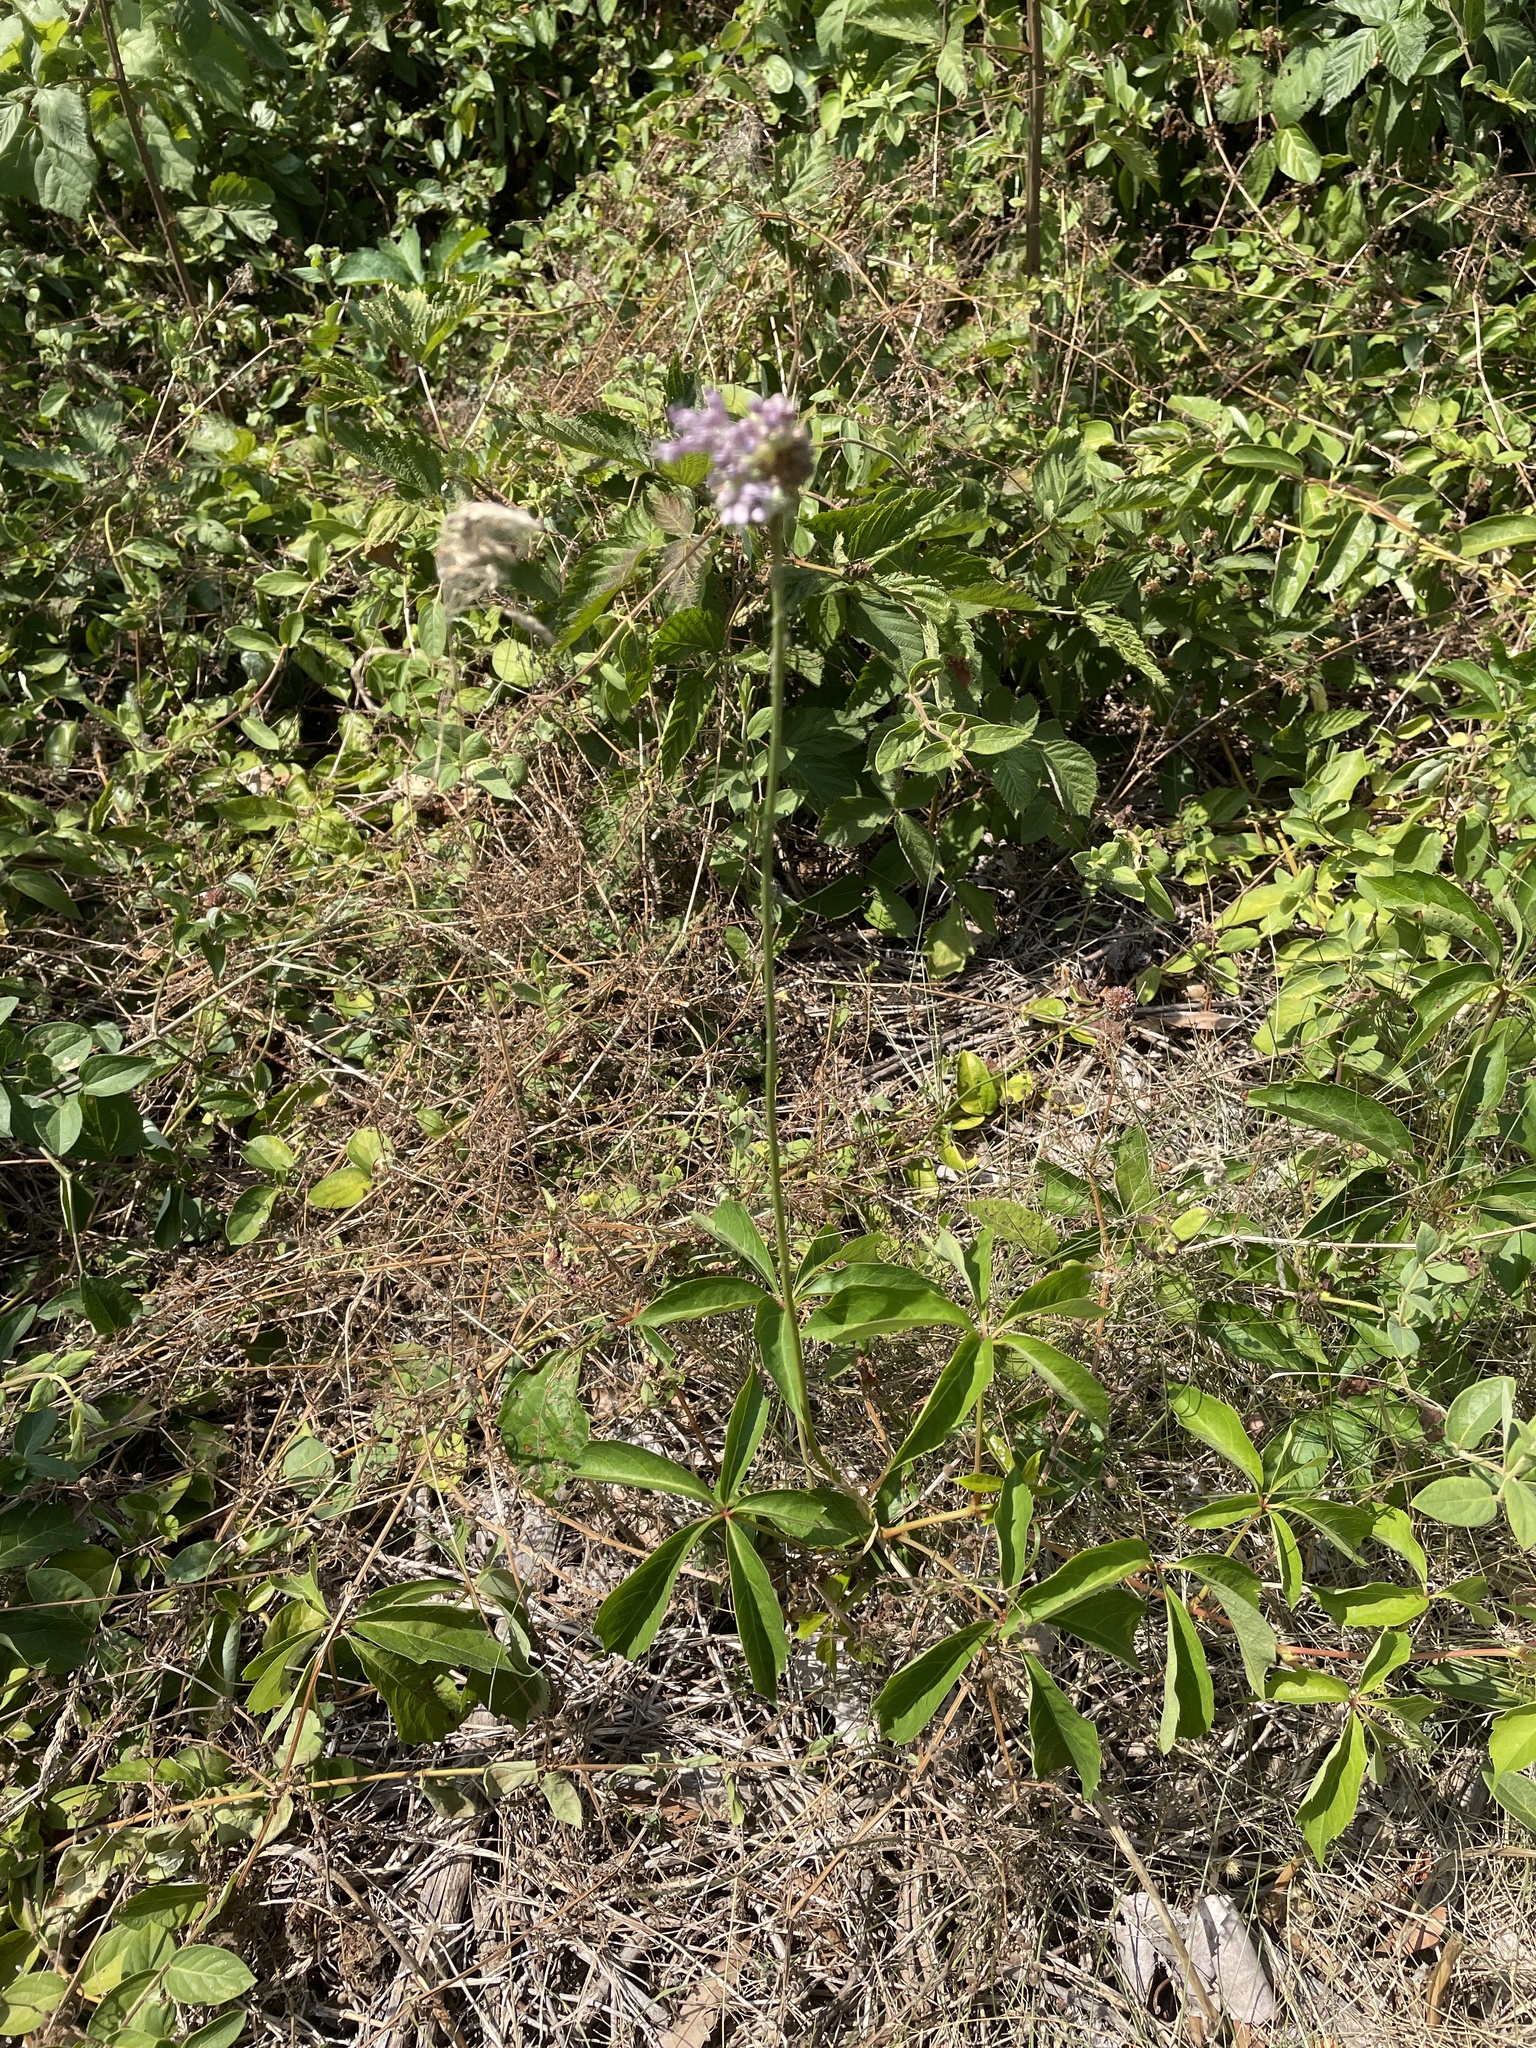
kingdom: Plantae
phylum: Tracheophyta
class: Liliopsida
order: Asparagales
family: Amaryllidaceae
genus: Allium
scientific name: Allium vineale
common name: Crow garlic
